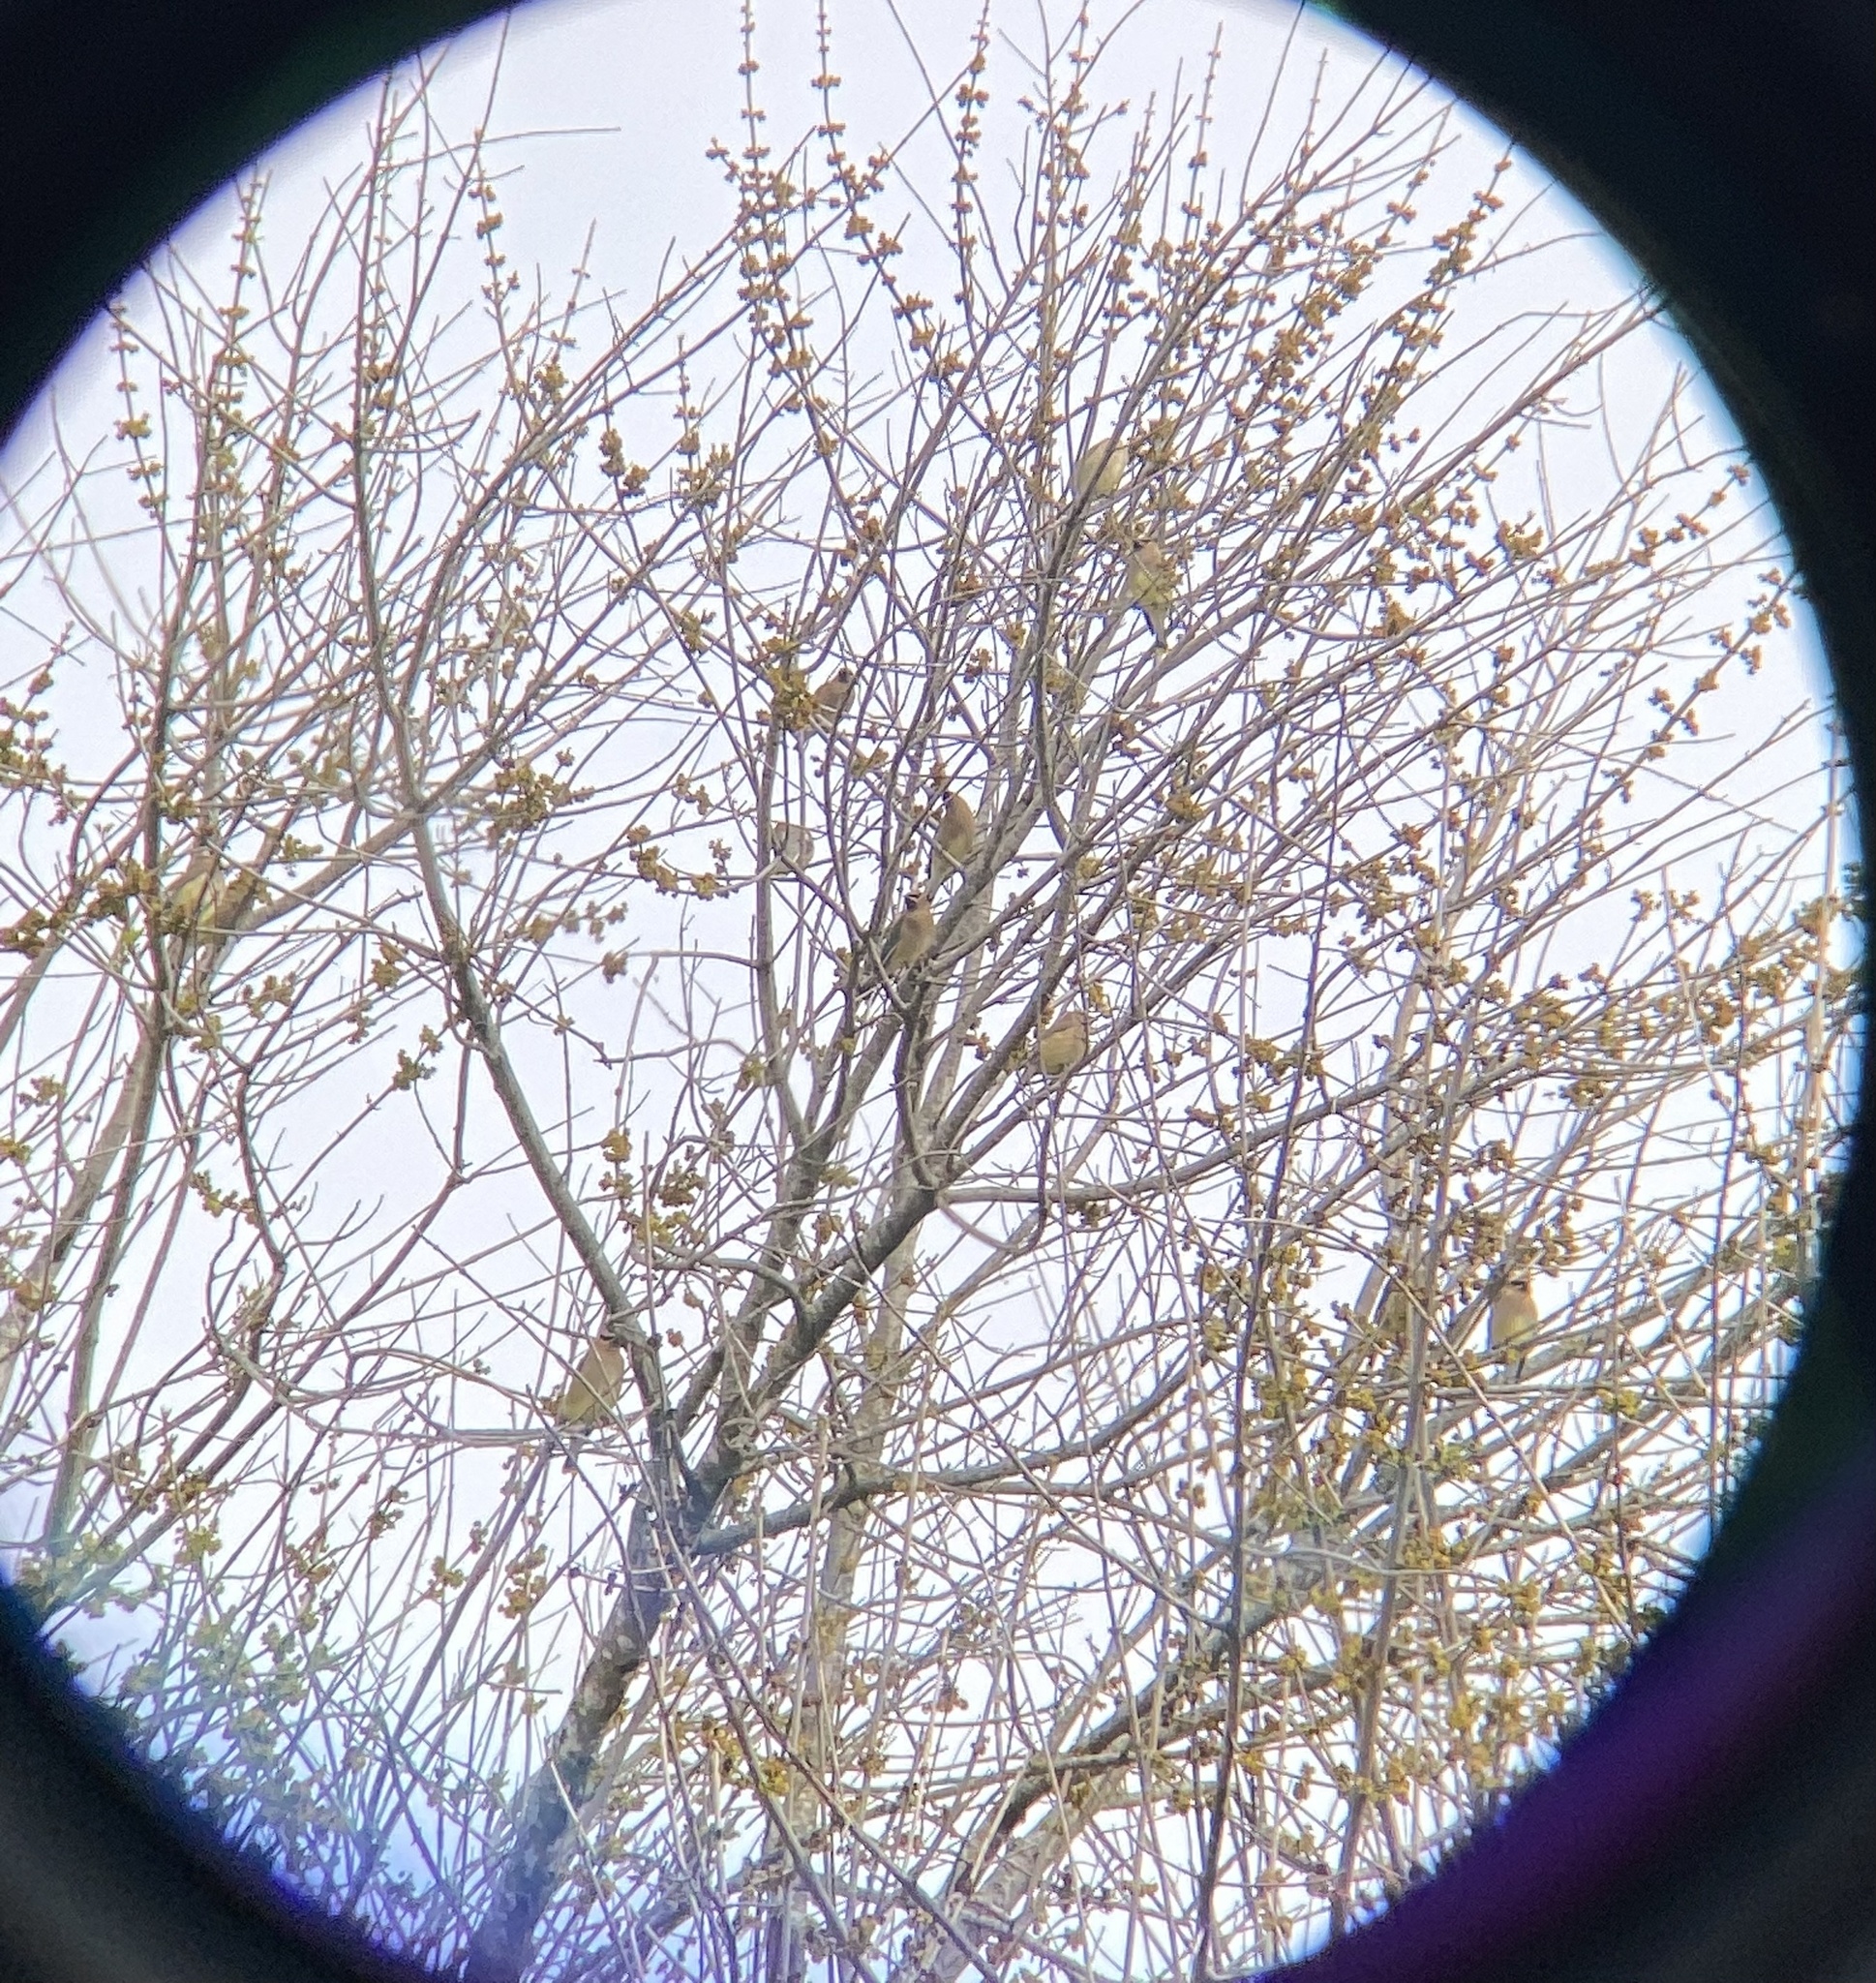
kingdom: Animalia
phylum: Chordata
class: Aves
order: Passeriformes
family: Bombycillidae
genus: Bombycilla
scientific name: Bombycilla cedrorum
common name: Cedar waxwing
